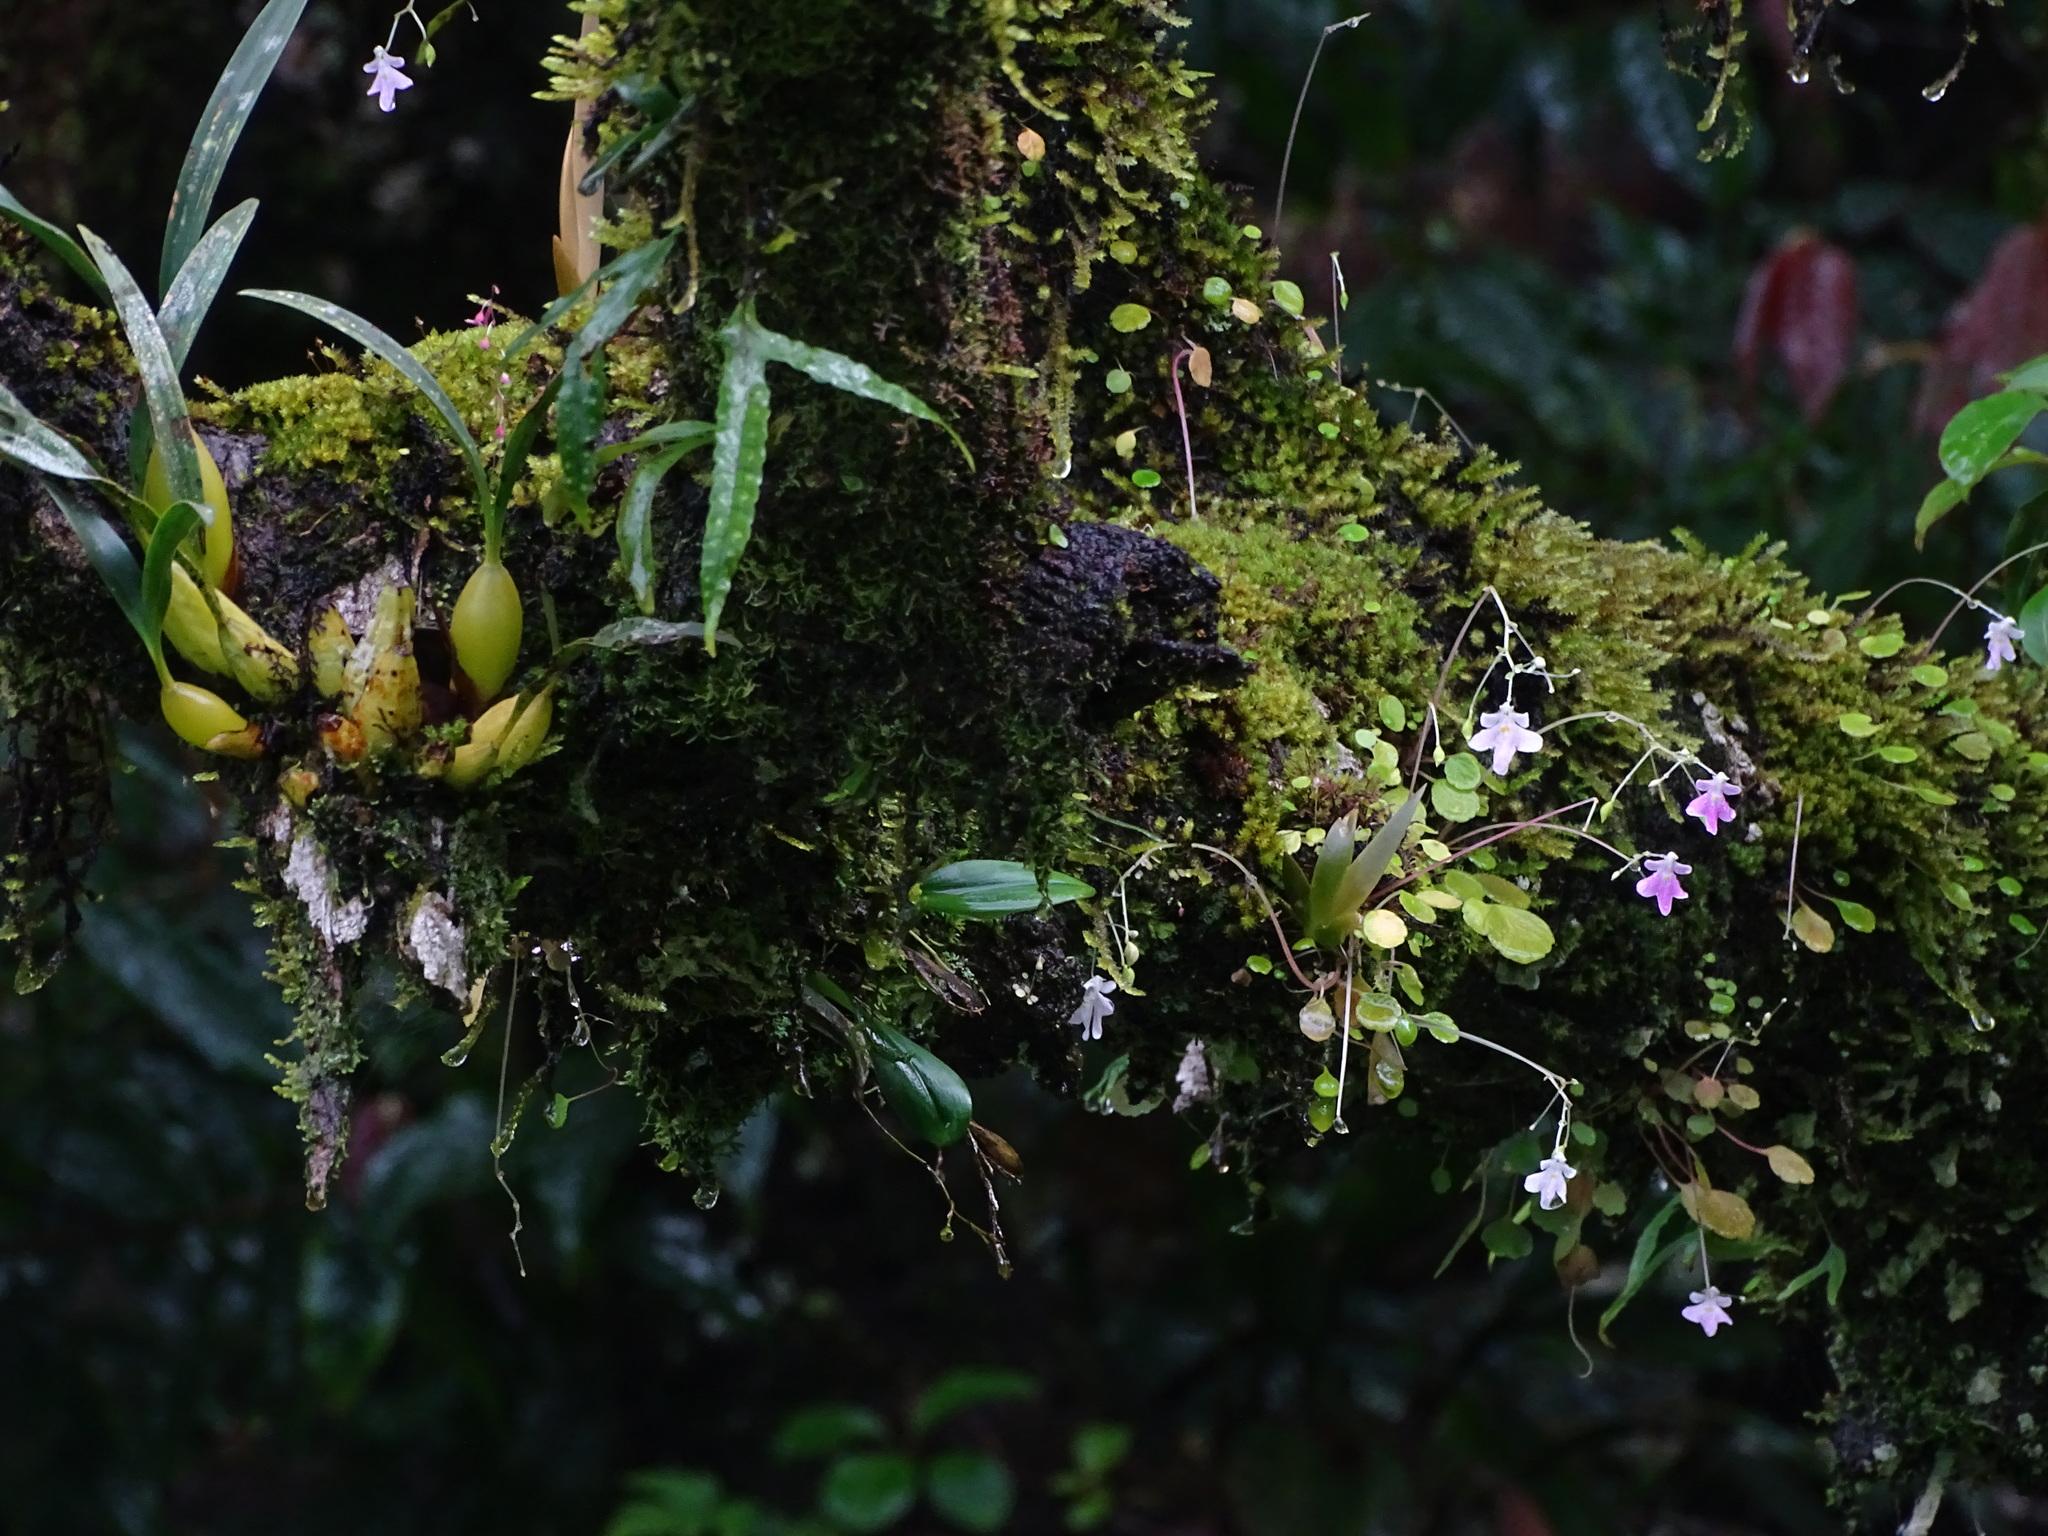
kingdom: Plantae
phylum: Tracheophyta
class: Magnoliopsida
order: Ericales
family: Balsaminaceae
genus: Impatiens
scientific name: Impatiens agumbeana
